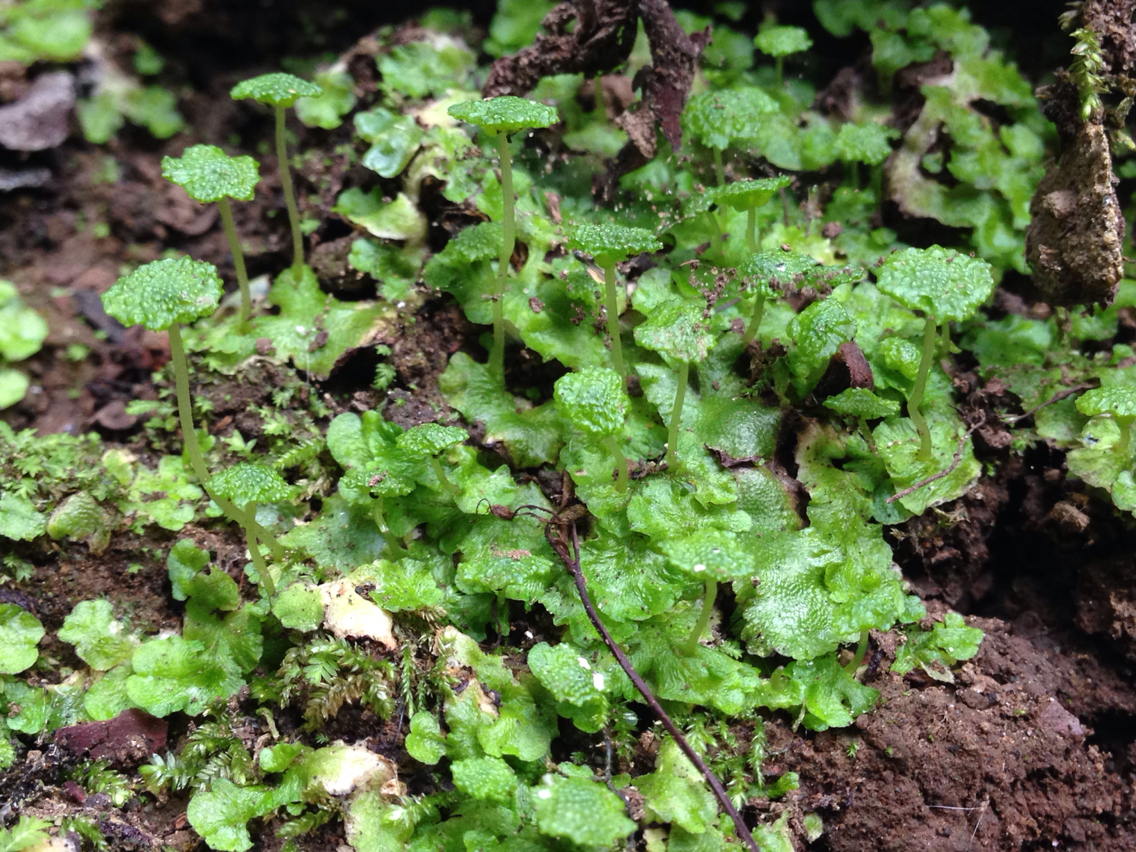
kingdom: Plantae
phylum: Marchantiophyta
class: Marchantiopsida
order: Marchantiales
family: Aytoniaceae
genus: Cryptomitrium
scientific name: Cryptomitrium tenerum
